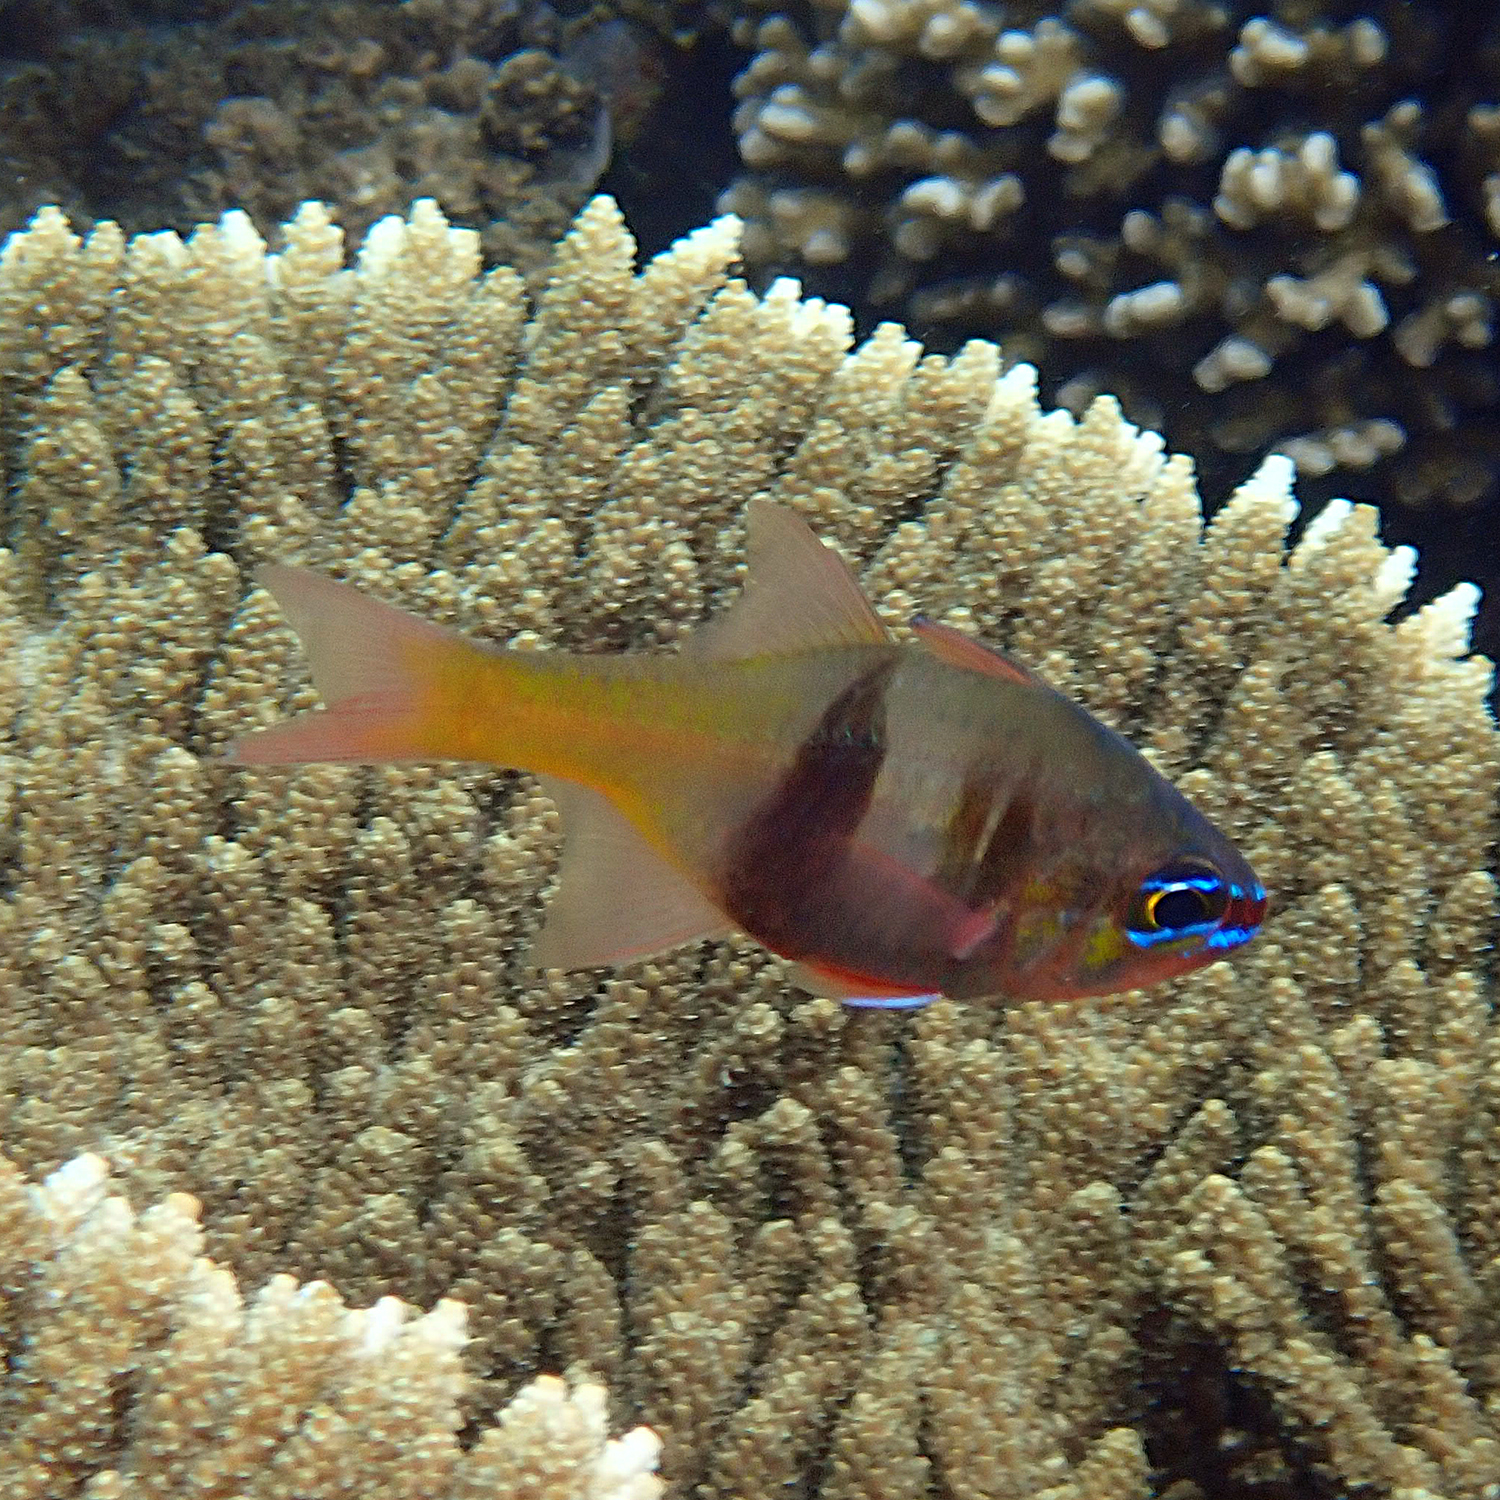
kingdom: Animalia
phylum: Chordata
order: Perciformes
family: Apogonidae
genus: Taeniamia
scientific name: Taeniamia leai
